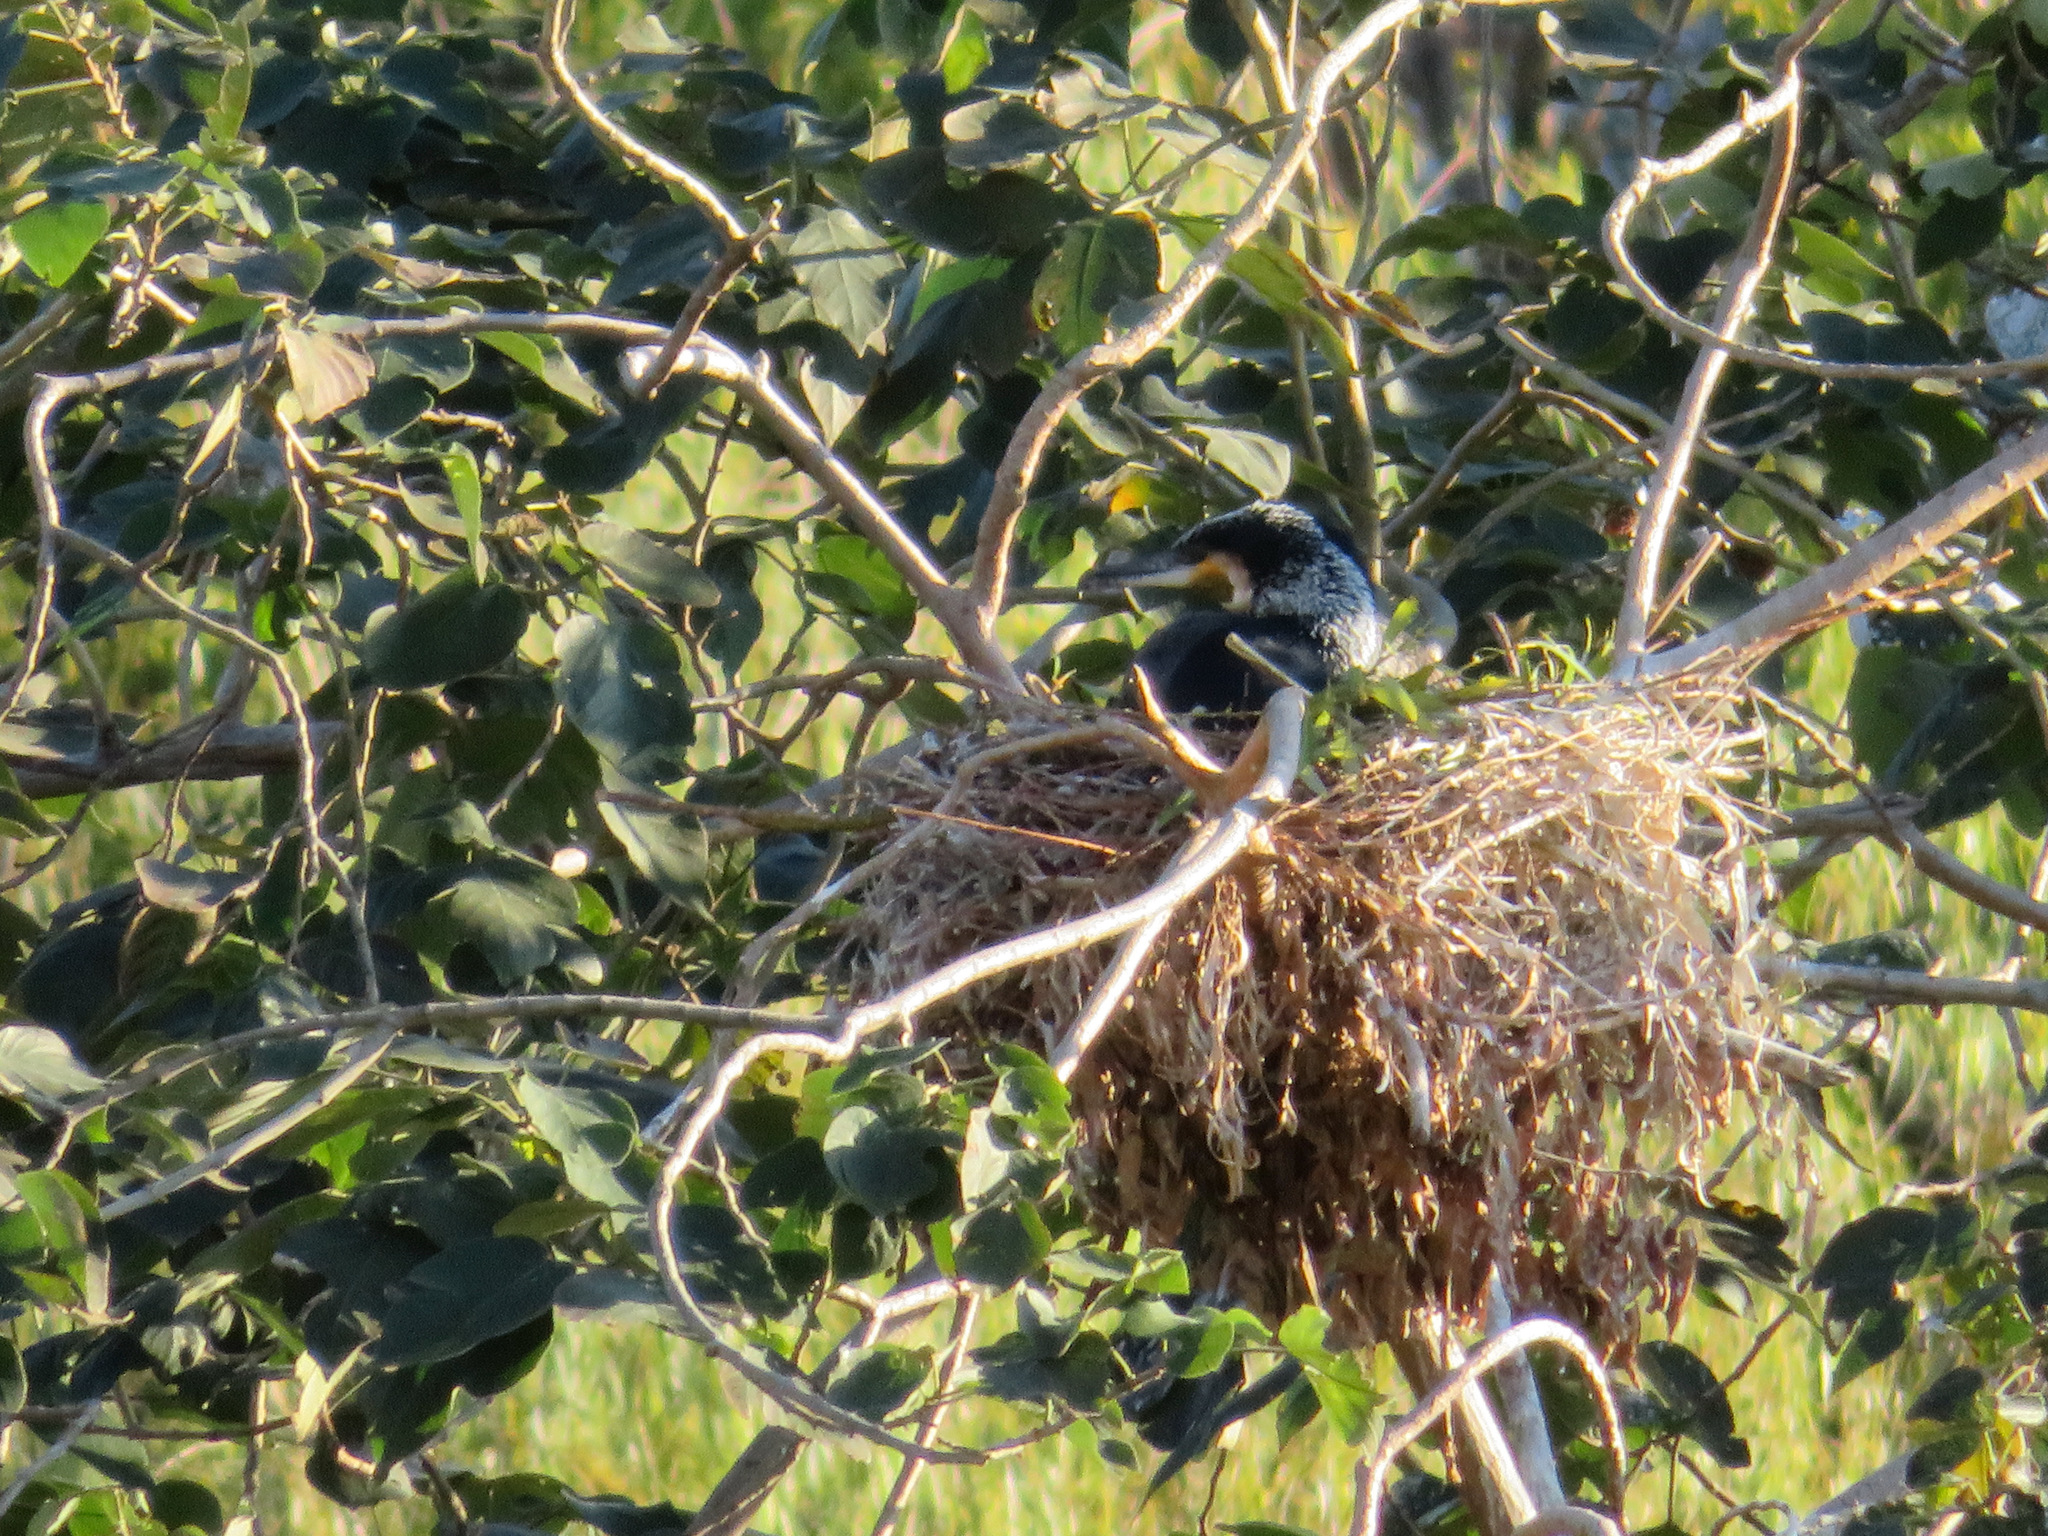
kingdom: Animalia
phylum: Chordata
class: Aves
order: Suliformes
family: Phalacrocoracidae
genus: Phalacrocorax
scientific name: Phalacrocorax carbo
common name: Great cormorant
